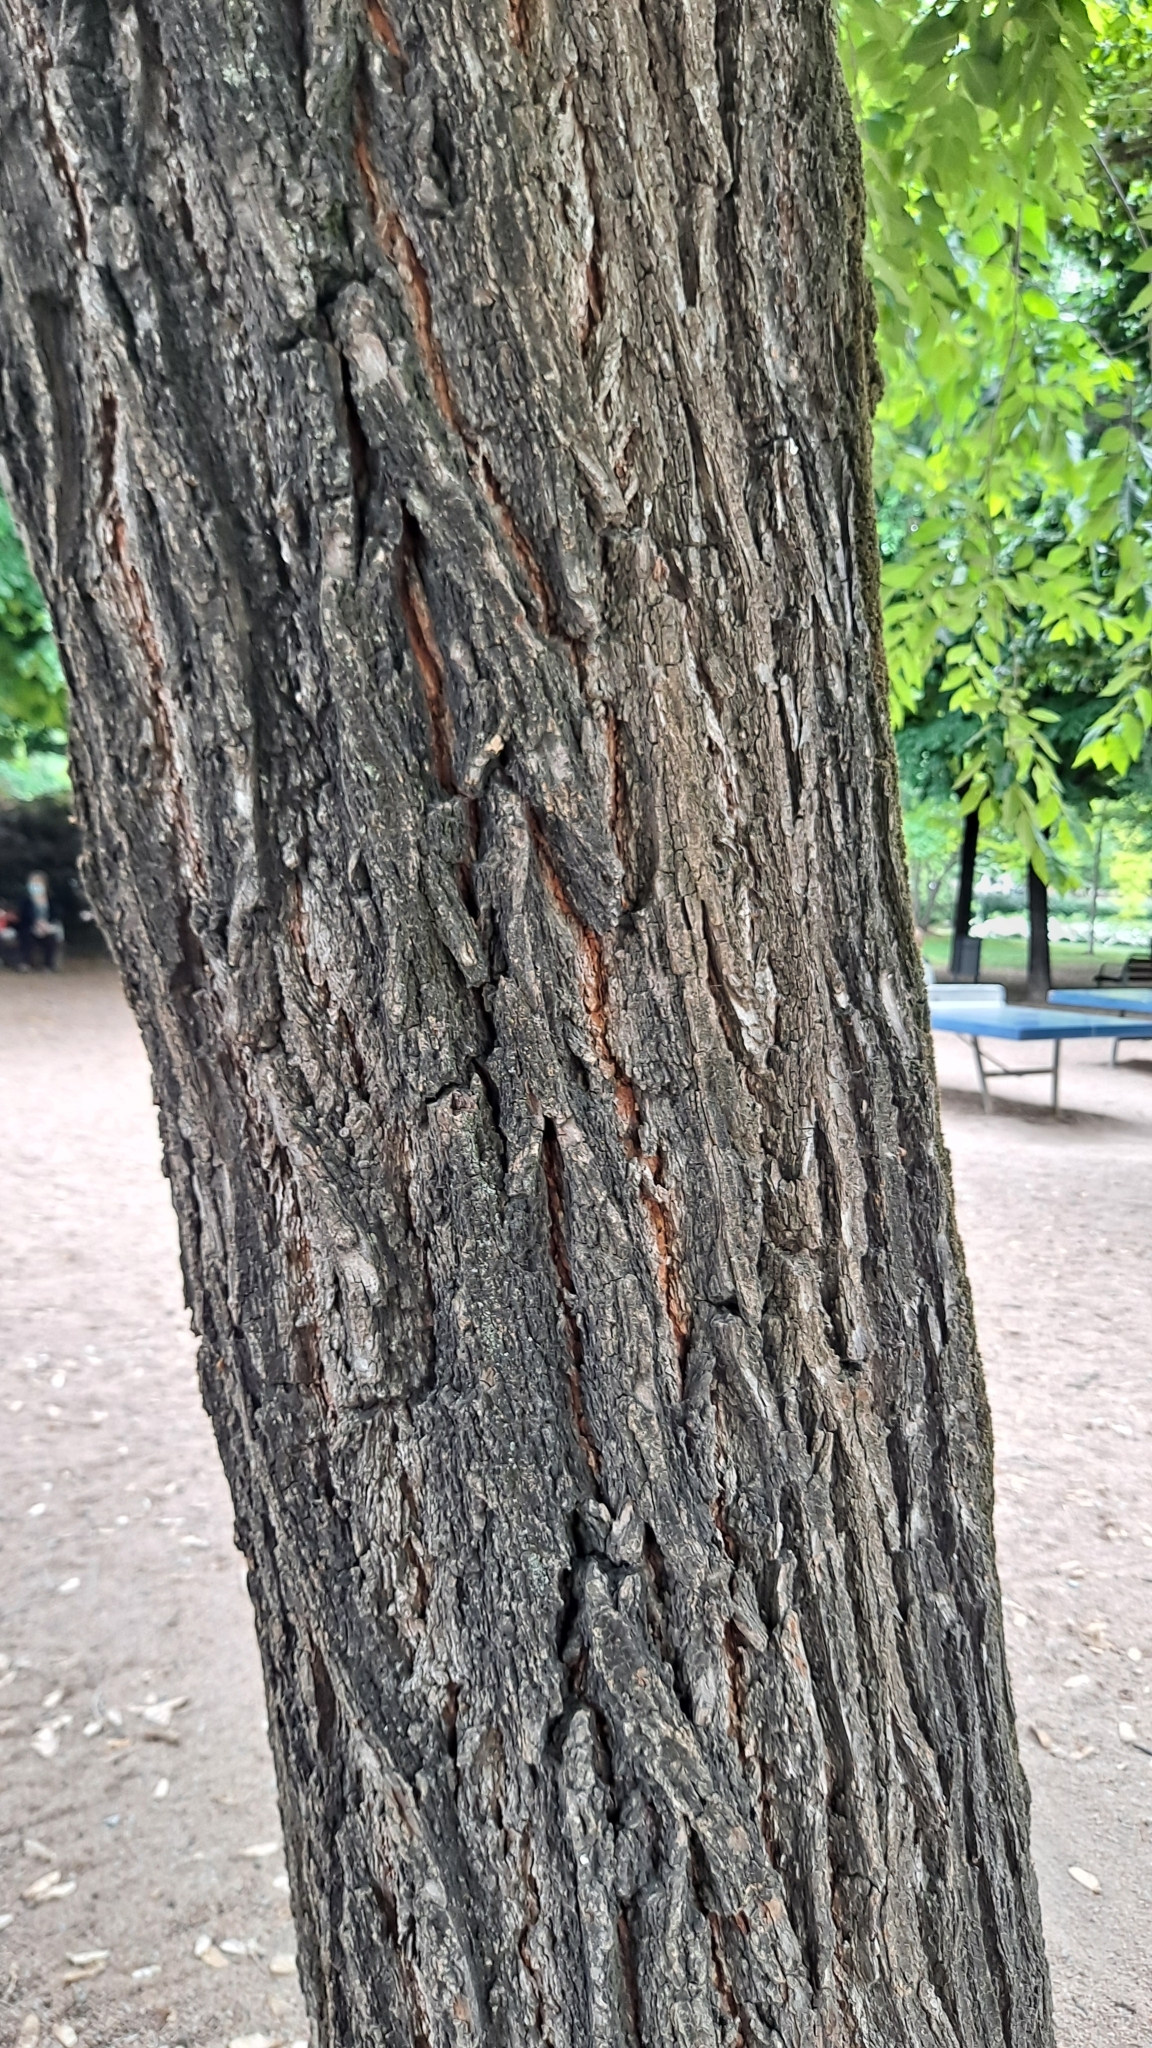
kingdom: Plantae
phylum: Tracheophyta
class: Magnoliopsida
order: Rosales
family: Ulmaceae
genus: Ulmus
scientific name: Ulmus pumila
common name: Siberian elm
